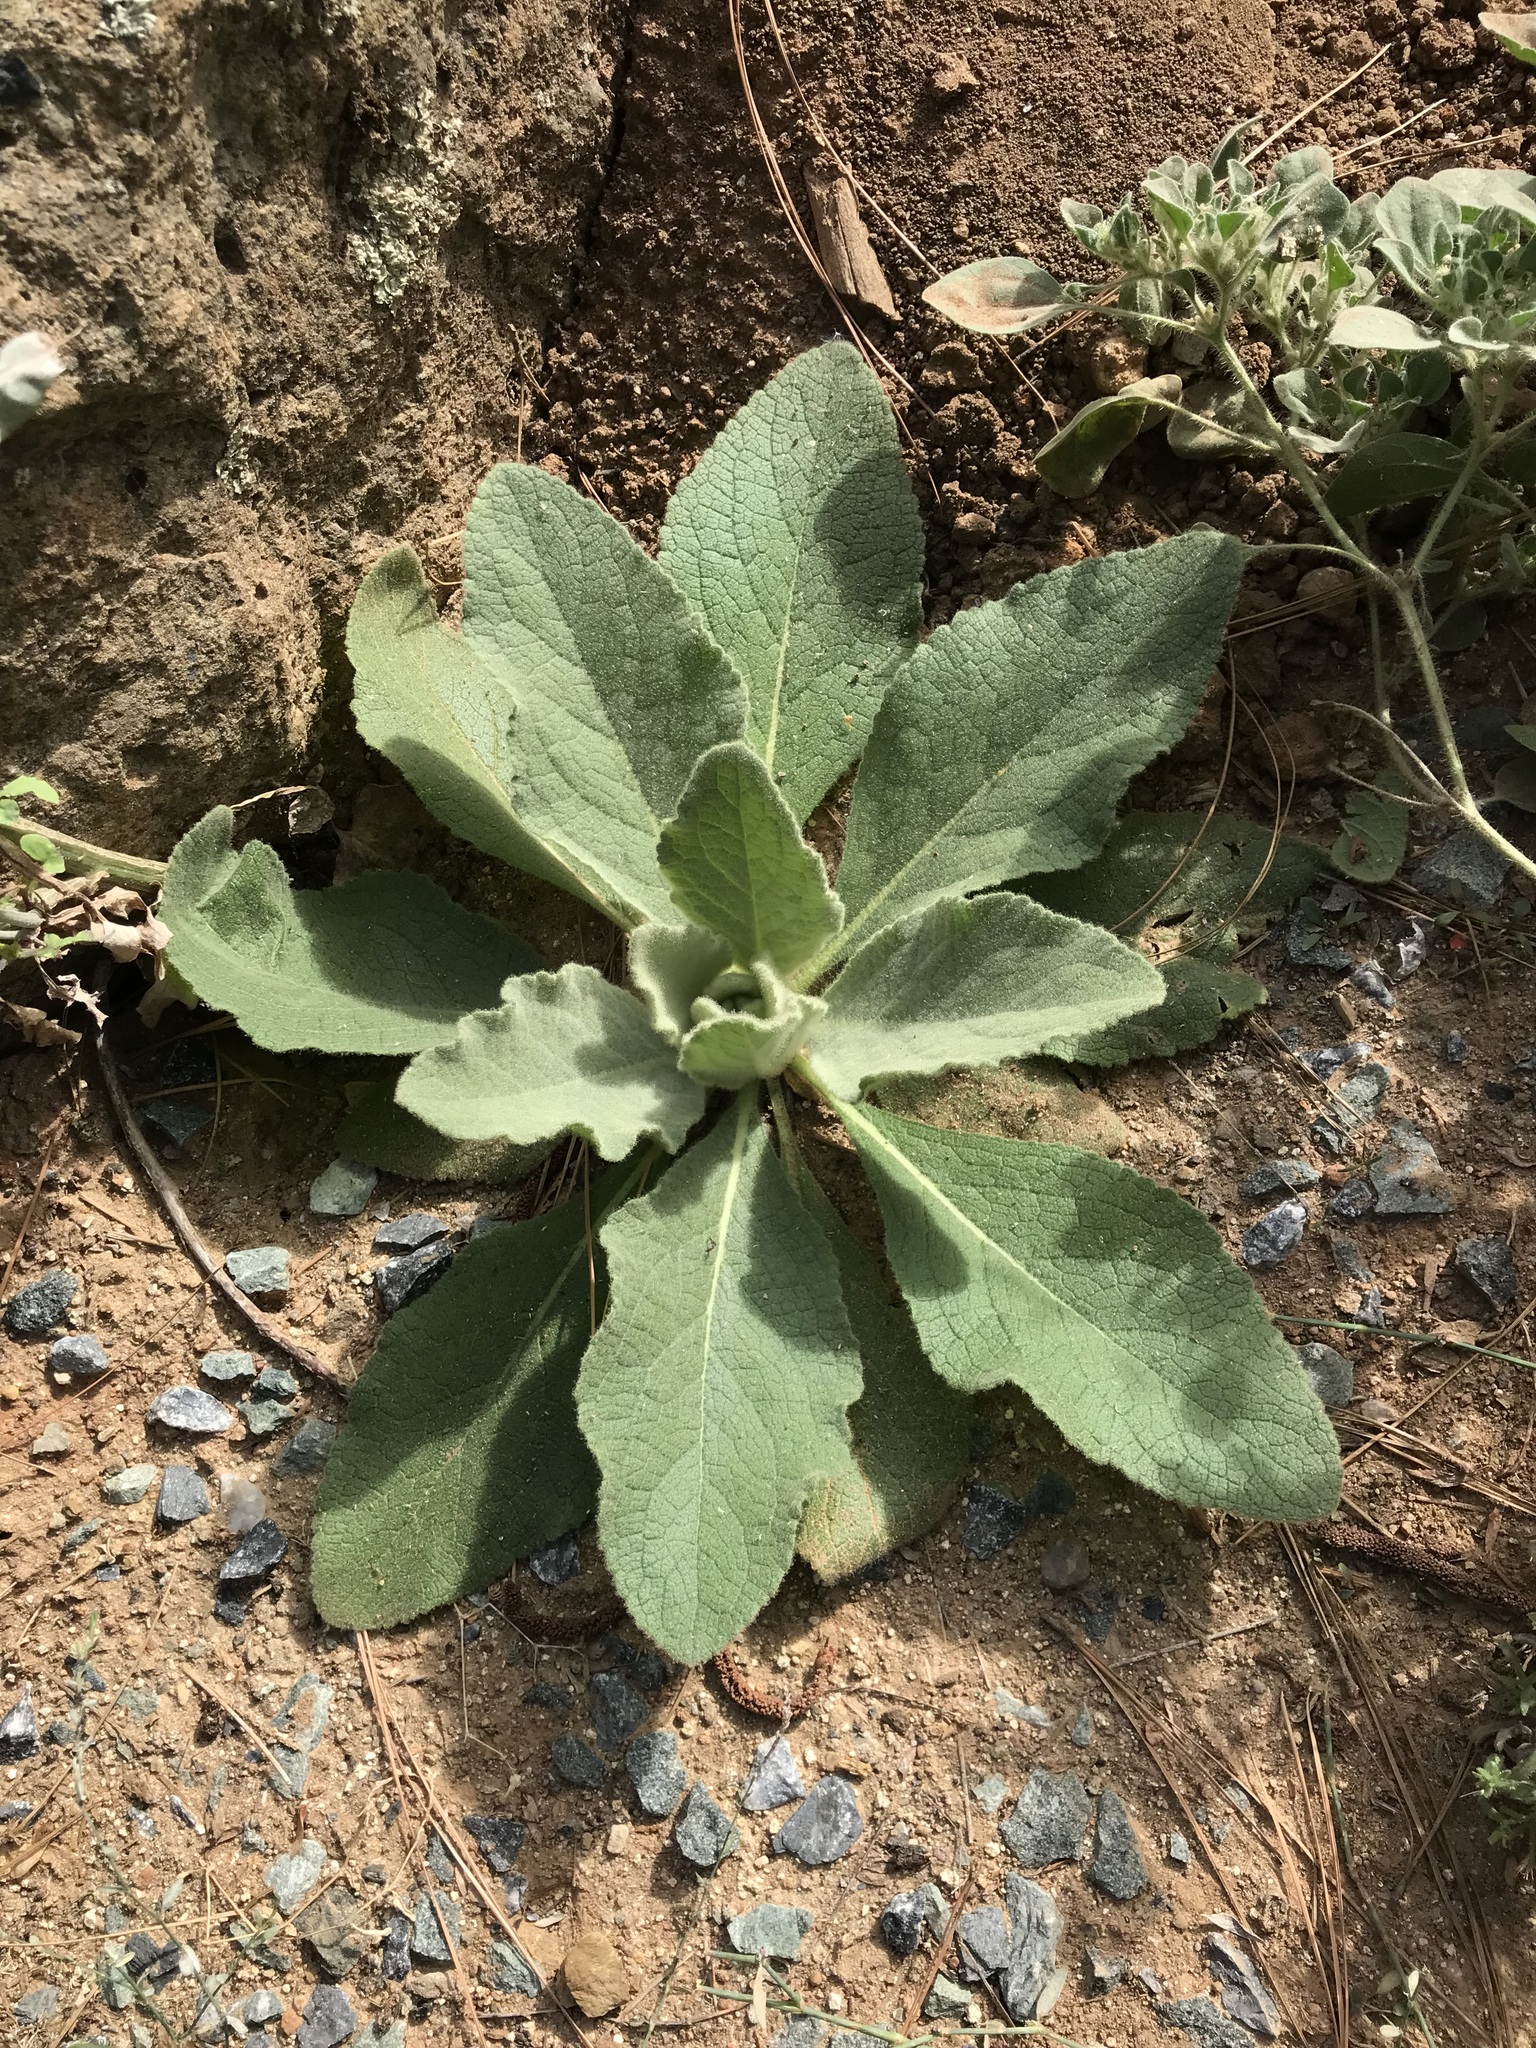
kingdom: Plantae
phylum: Tracheophyta
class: Magnoliopsida
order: Lamiales
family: Scrophulariaceae
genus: Verbascum
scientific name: Verbascum thapsus
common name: Common mullein
